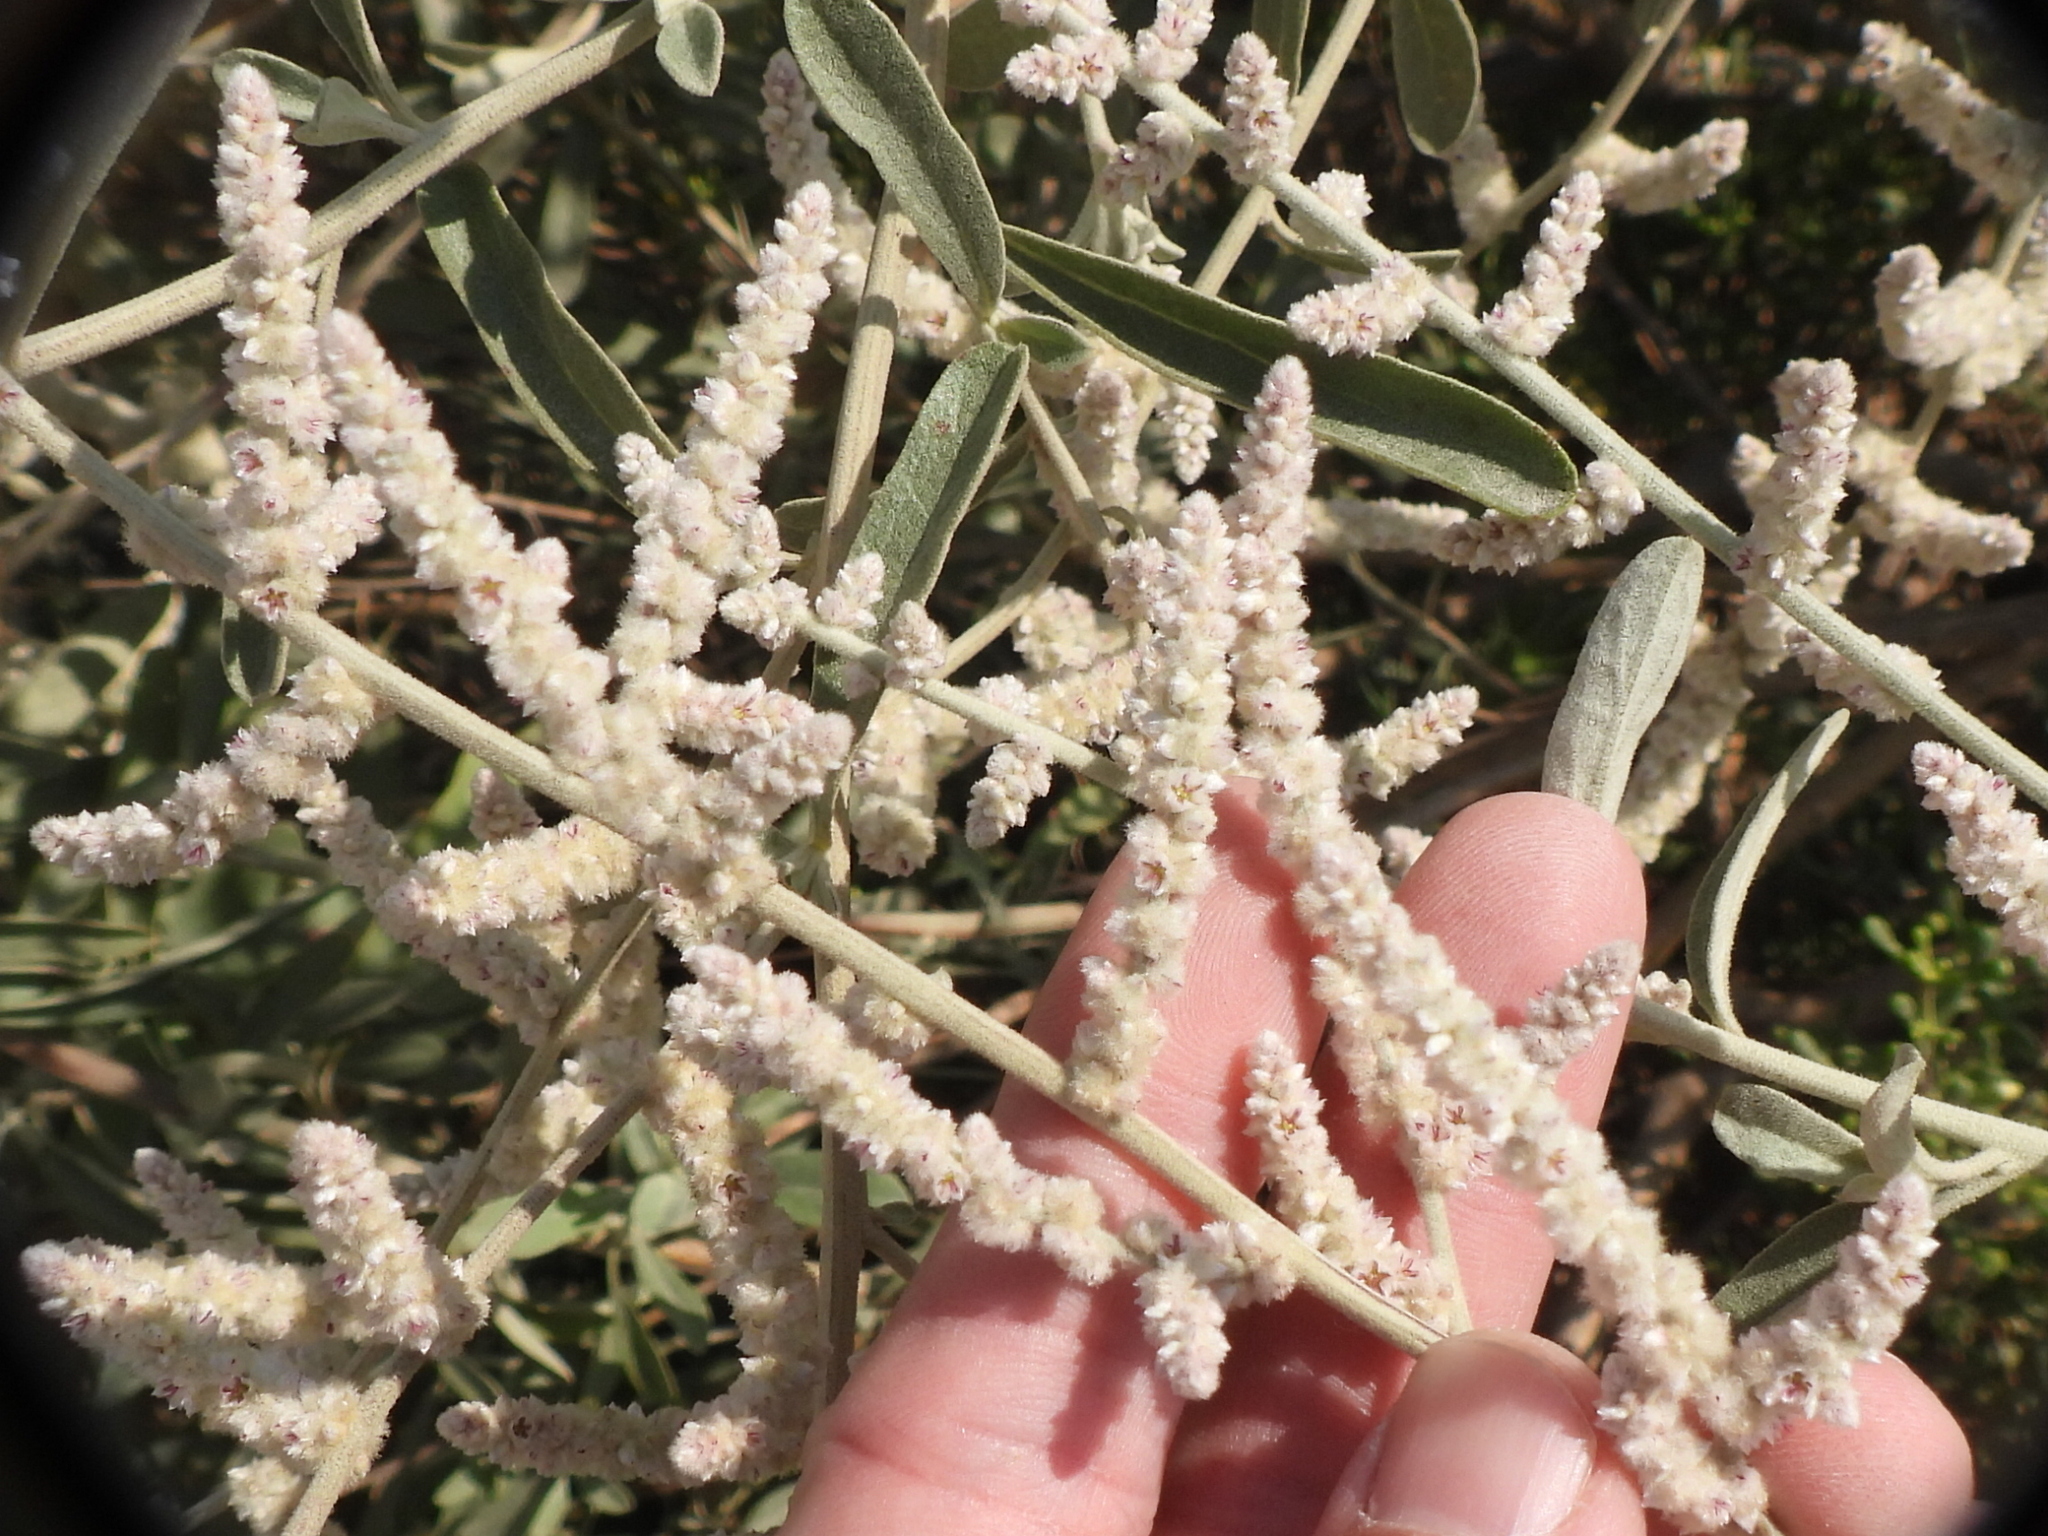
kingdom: Plantae
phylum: Tracheophyta
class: Magnoliopsida
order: Caryophyllales
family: Amaranthaceae
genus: Aerva
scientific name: Aerva javanica
